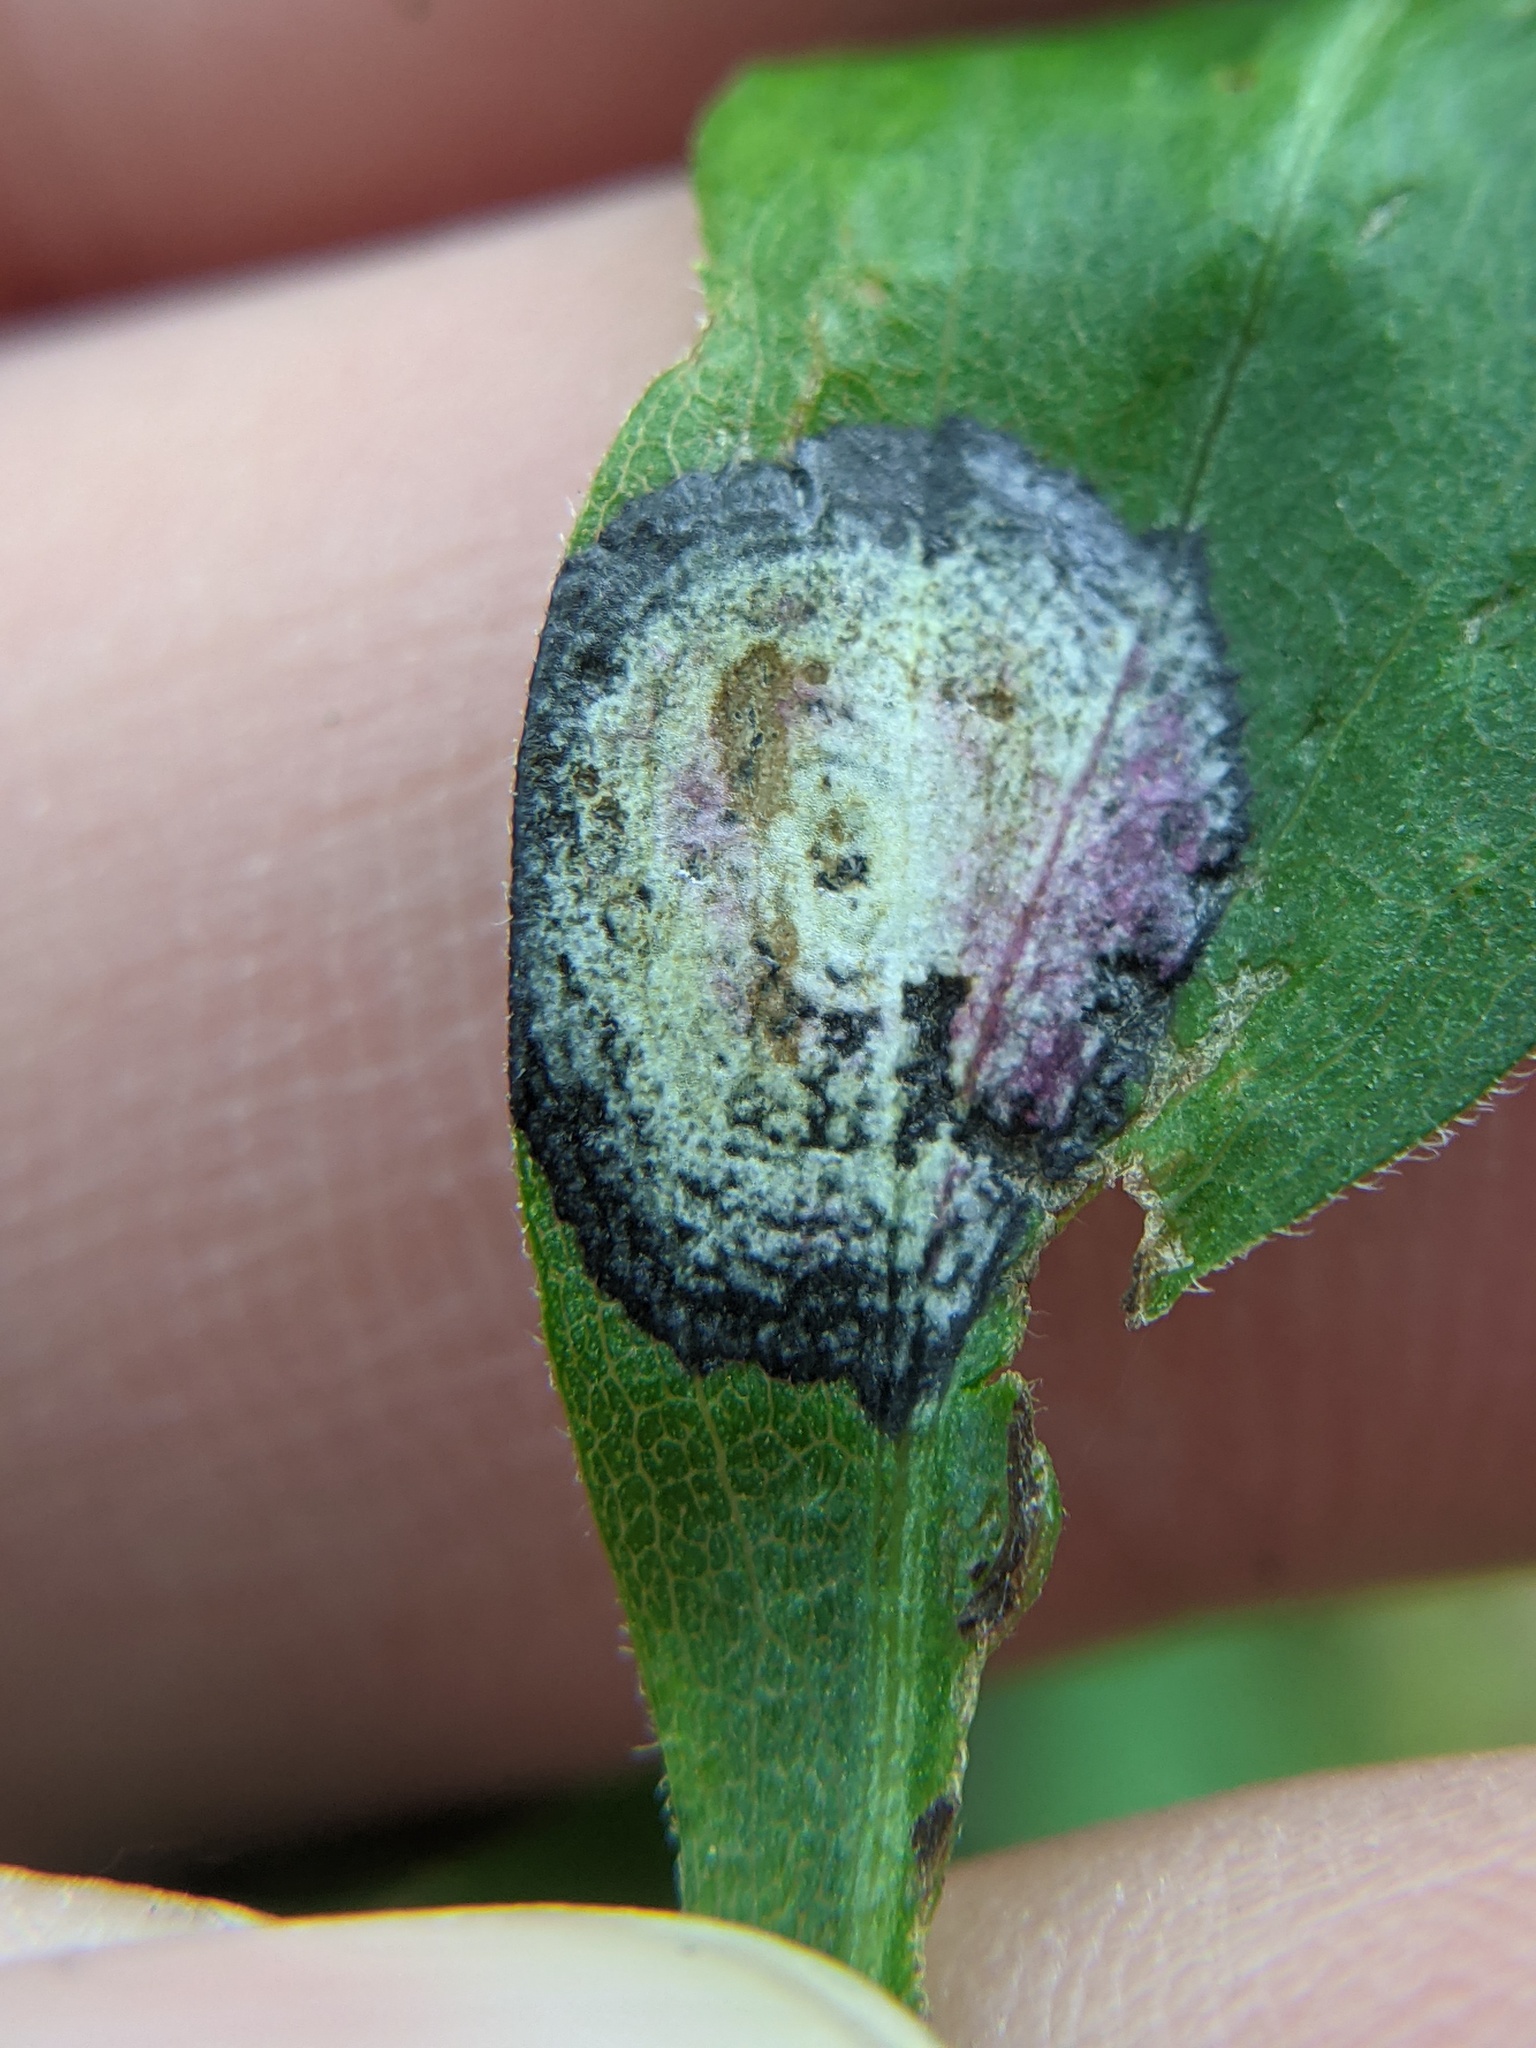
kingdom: Animalia
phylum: Arthropoda
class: Insecta
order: Diptera
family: Cecidomyiidae
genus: Asteromyia
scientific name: Asteromyia carbonifera
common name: Carbonifera goldenrod gall midge
